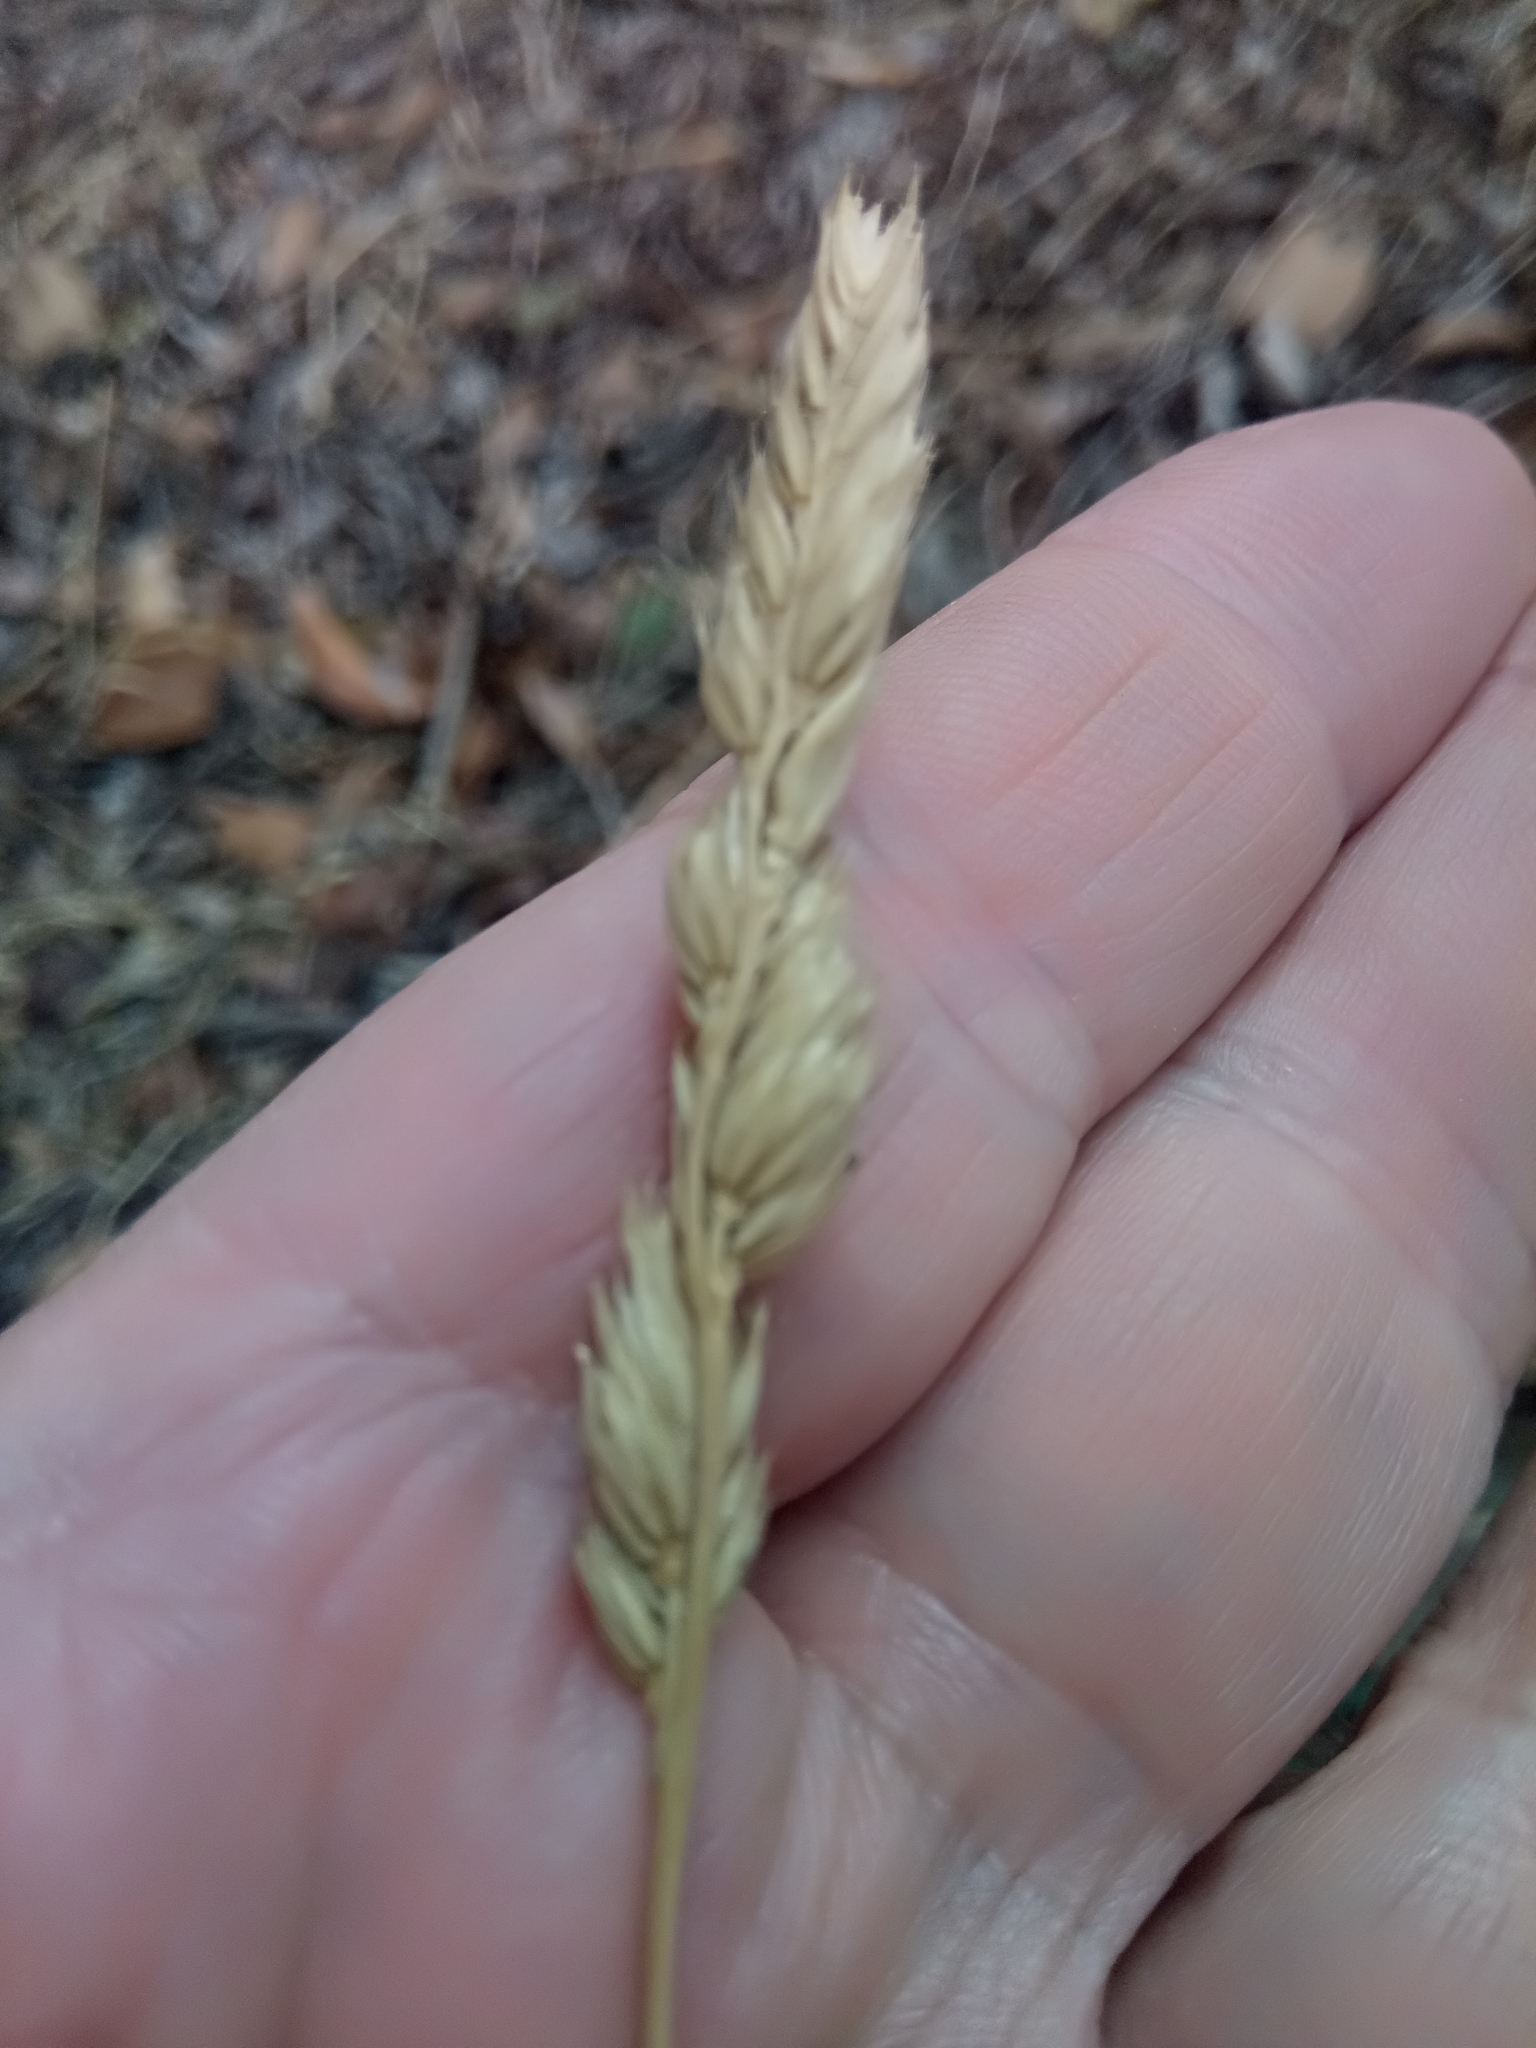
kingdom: Plantae
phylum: Tracheophyta
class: Liliopsida
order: Poales
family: Poaceae
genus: Dactylis
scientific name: Dactylis glomerata
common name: Orchardgrass
